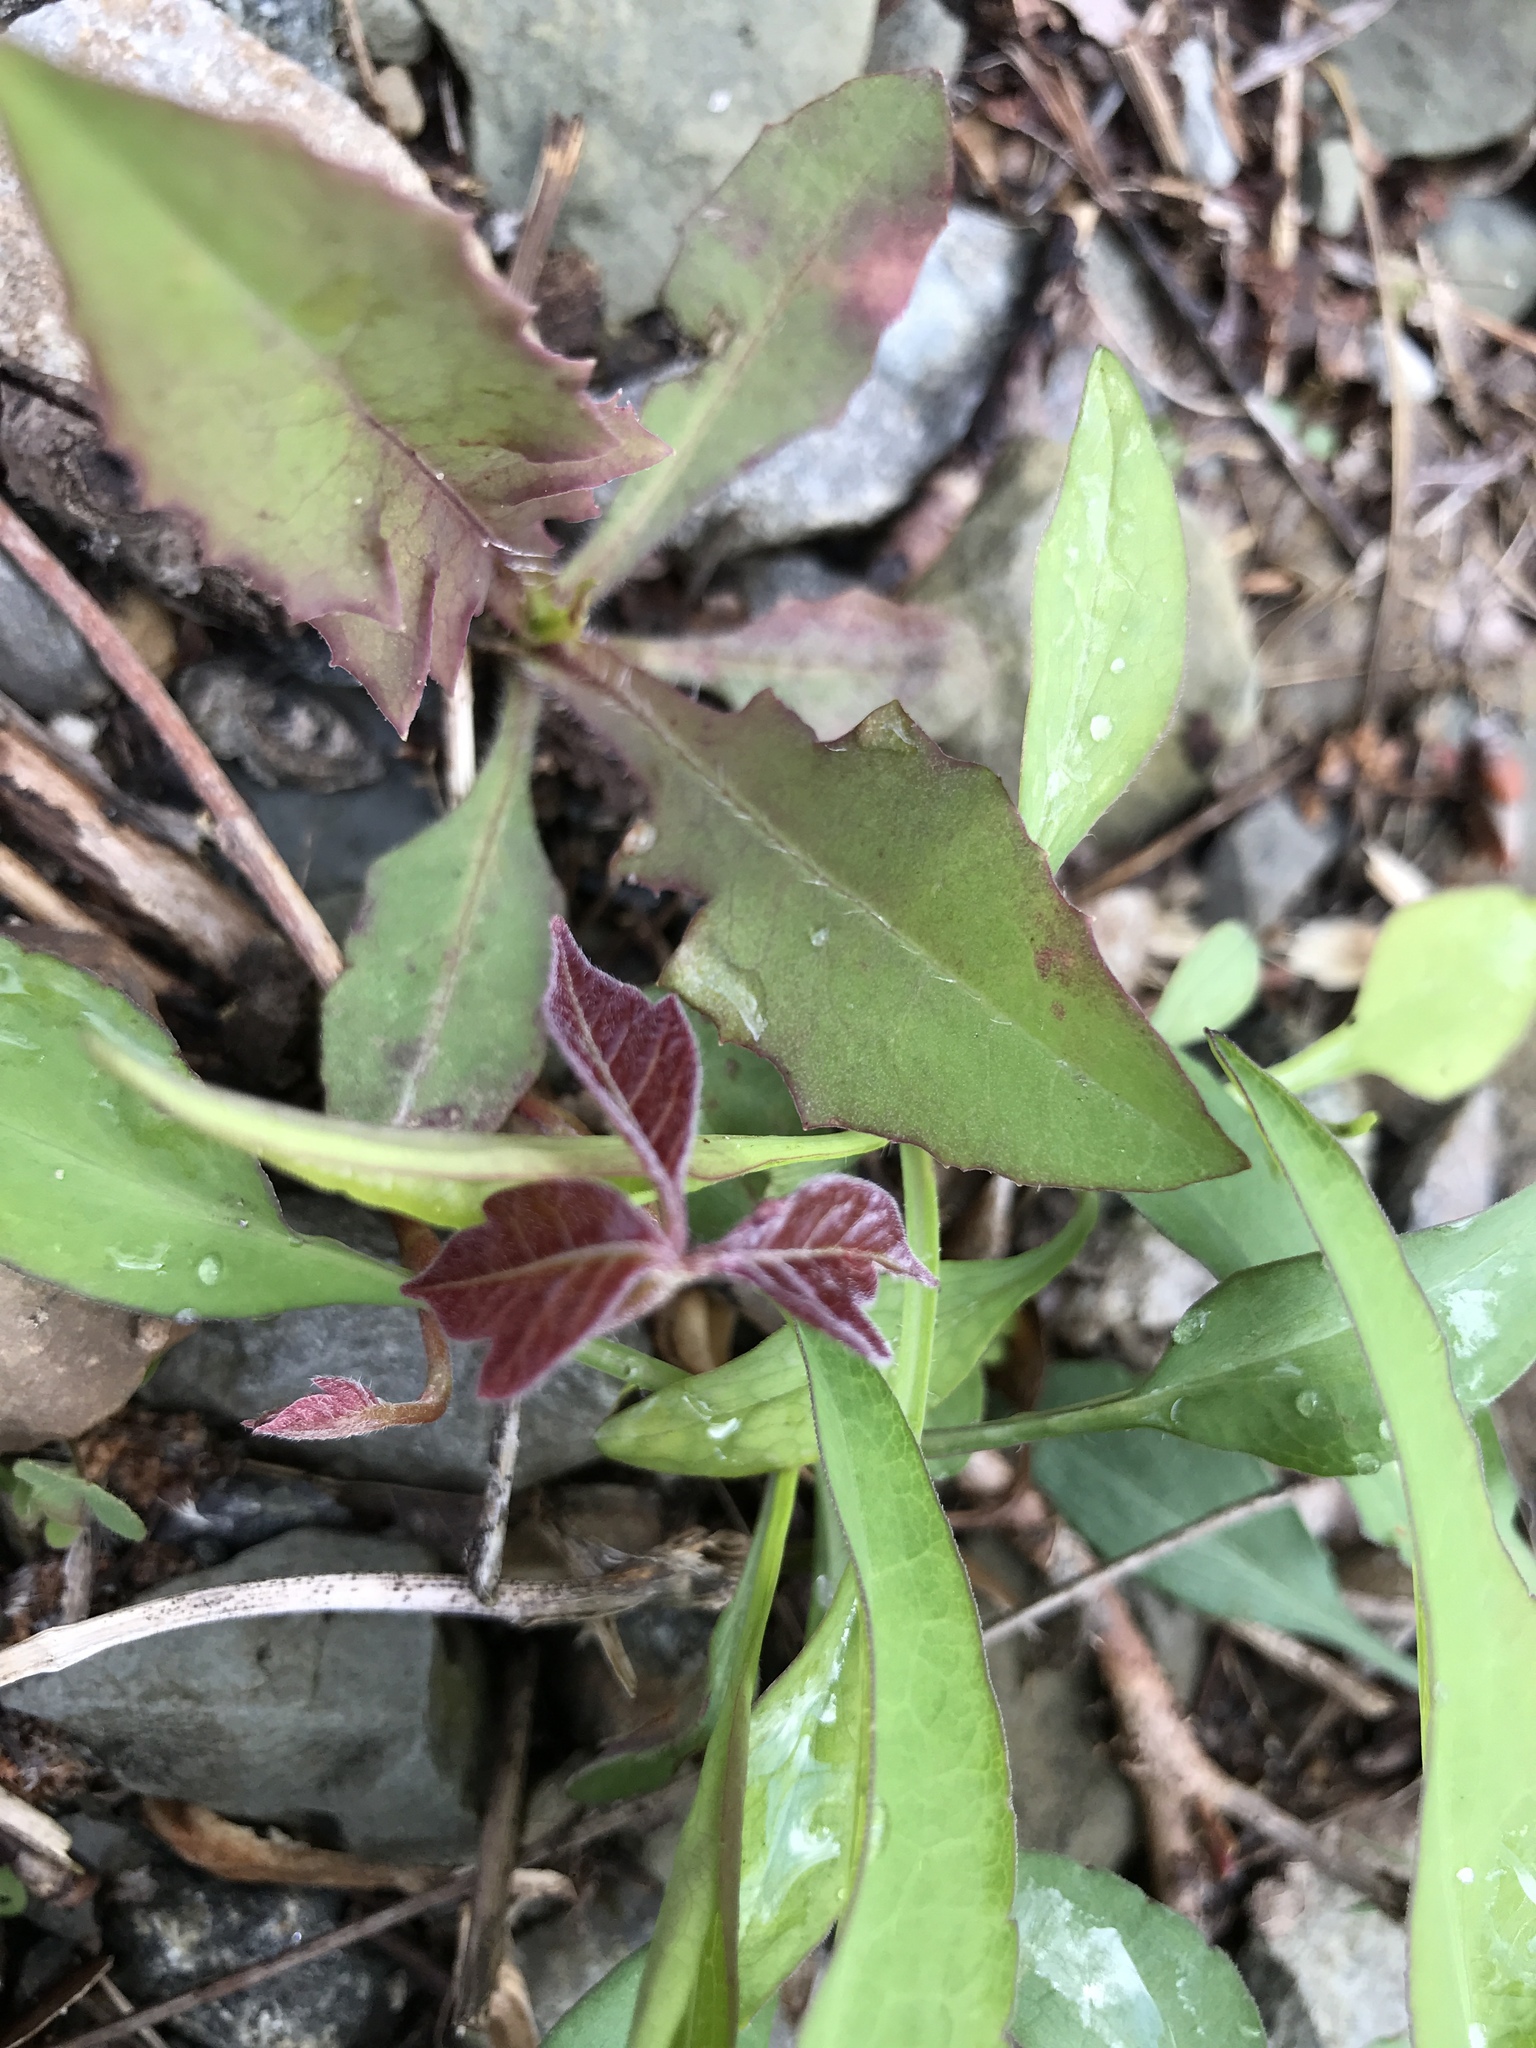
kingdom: Plantae
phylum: Tracheophyta
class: Magnoliopsida
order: Sapindales
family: Anacardiaceae
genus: Toxicodendron
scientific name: Toxicodendron radicans
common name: Poison ivy
